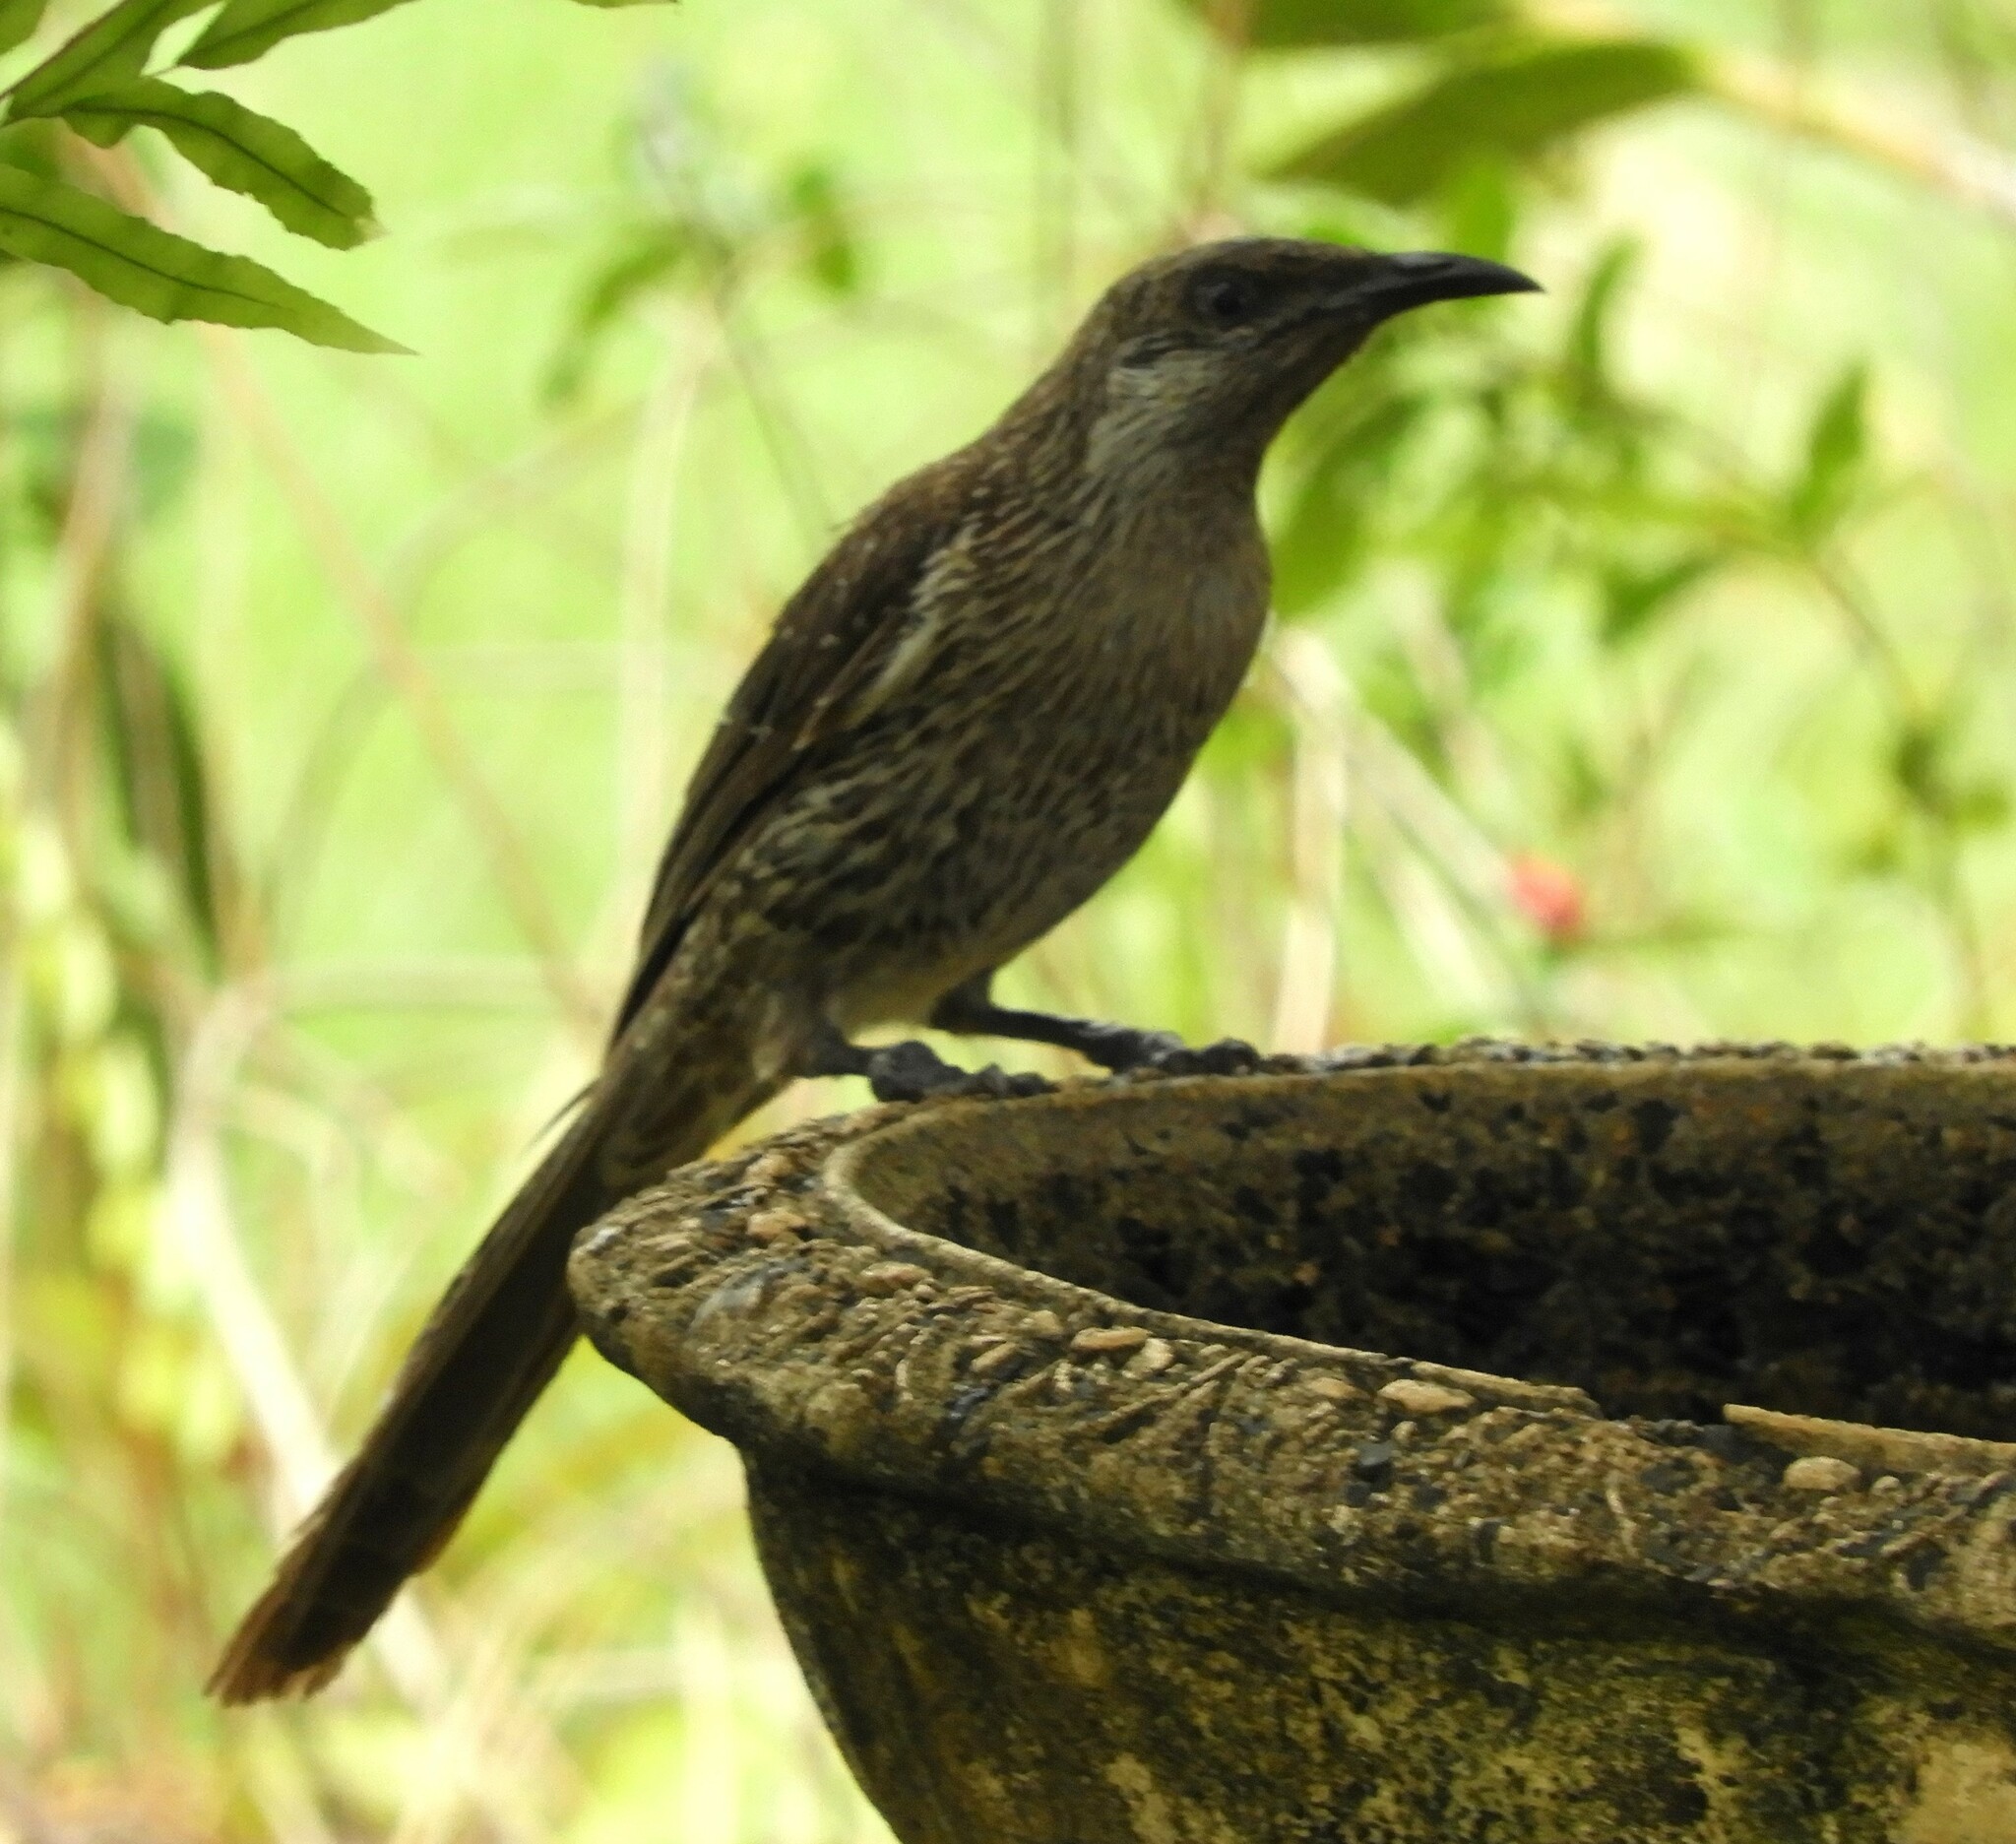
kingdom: Animalia
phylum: Chordata
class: Aves
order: Passeriformes
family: Meliphagidae
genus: Anthochaera
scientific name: Anthochaera chrysoptera
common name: Little wattlebird
